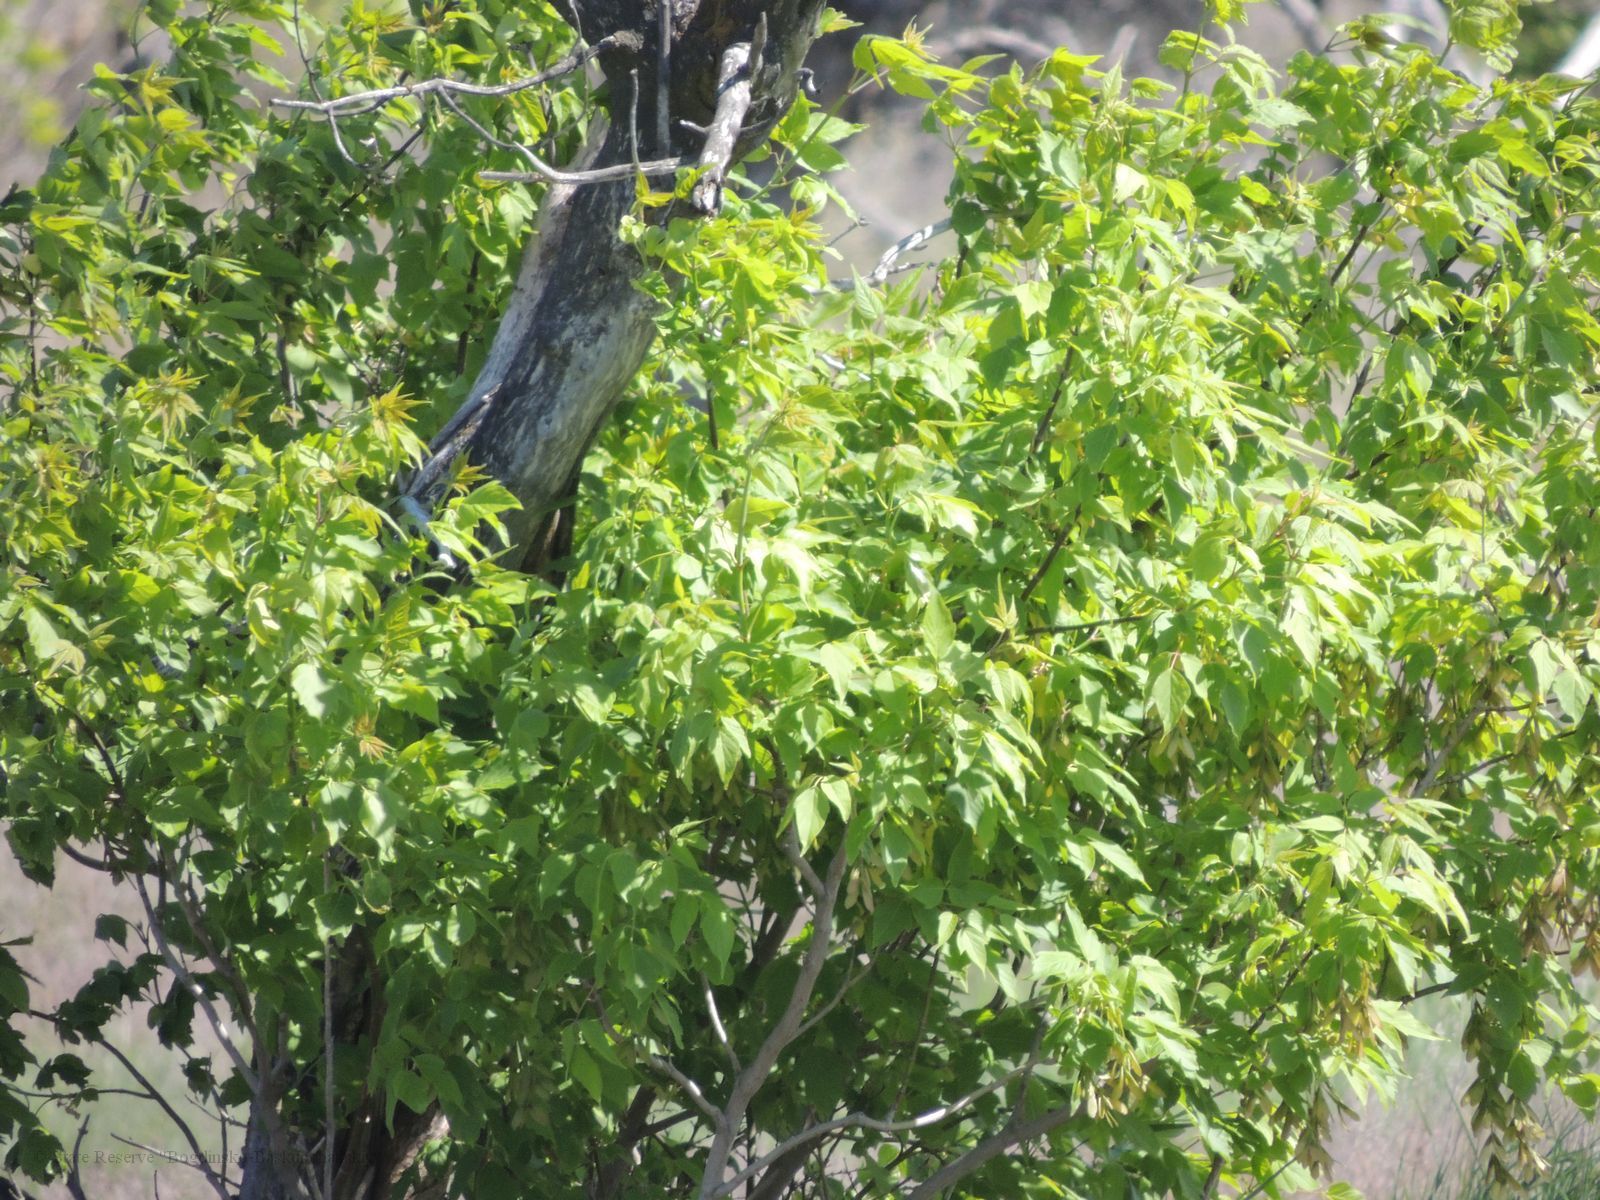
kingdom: Plantae
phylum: Tracheophyta
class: Magnoliopsida
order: Sapindales
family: Sapindaceae
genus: Acer
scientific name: Acer negundo
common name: Ashleaf maple
